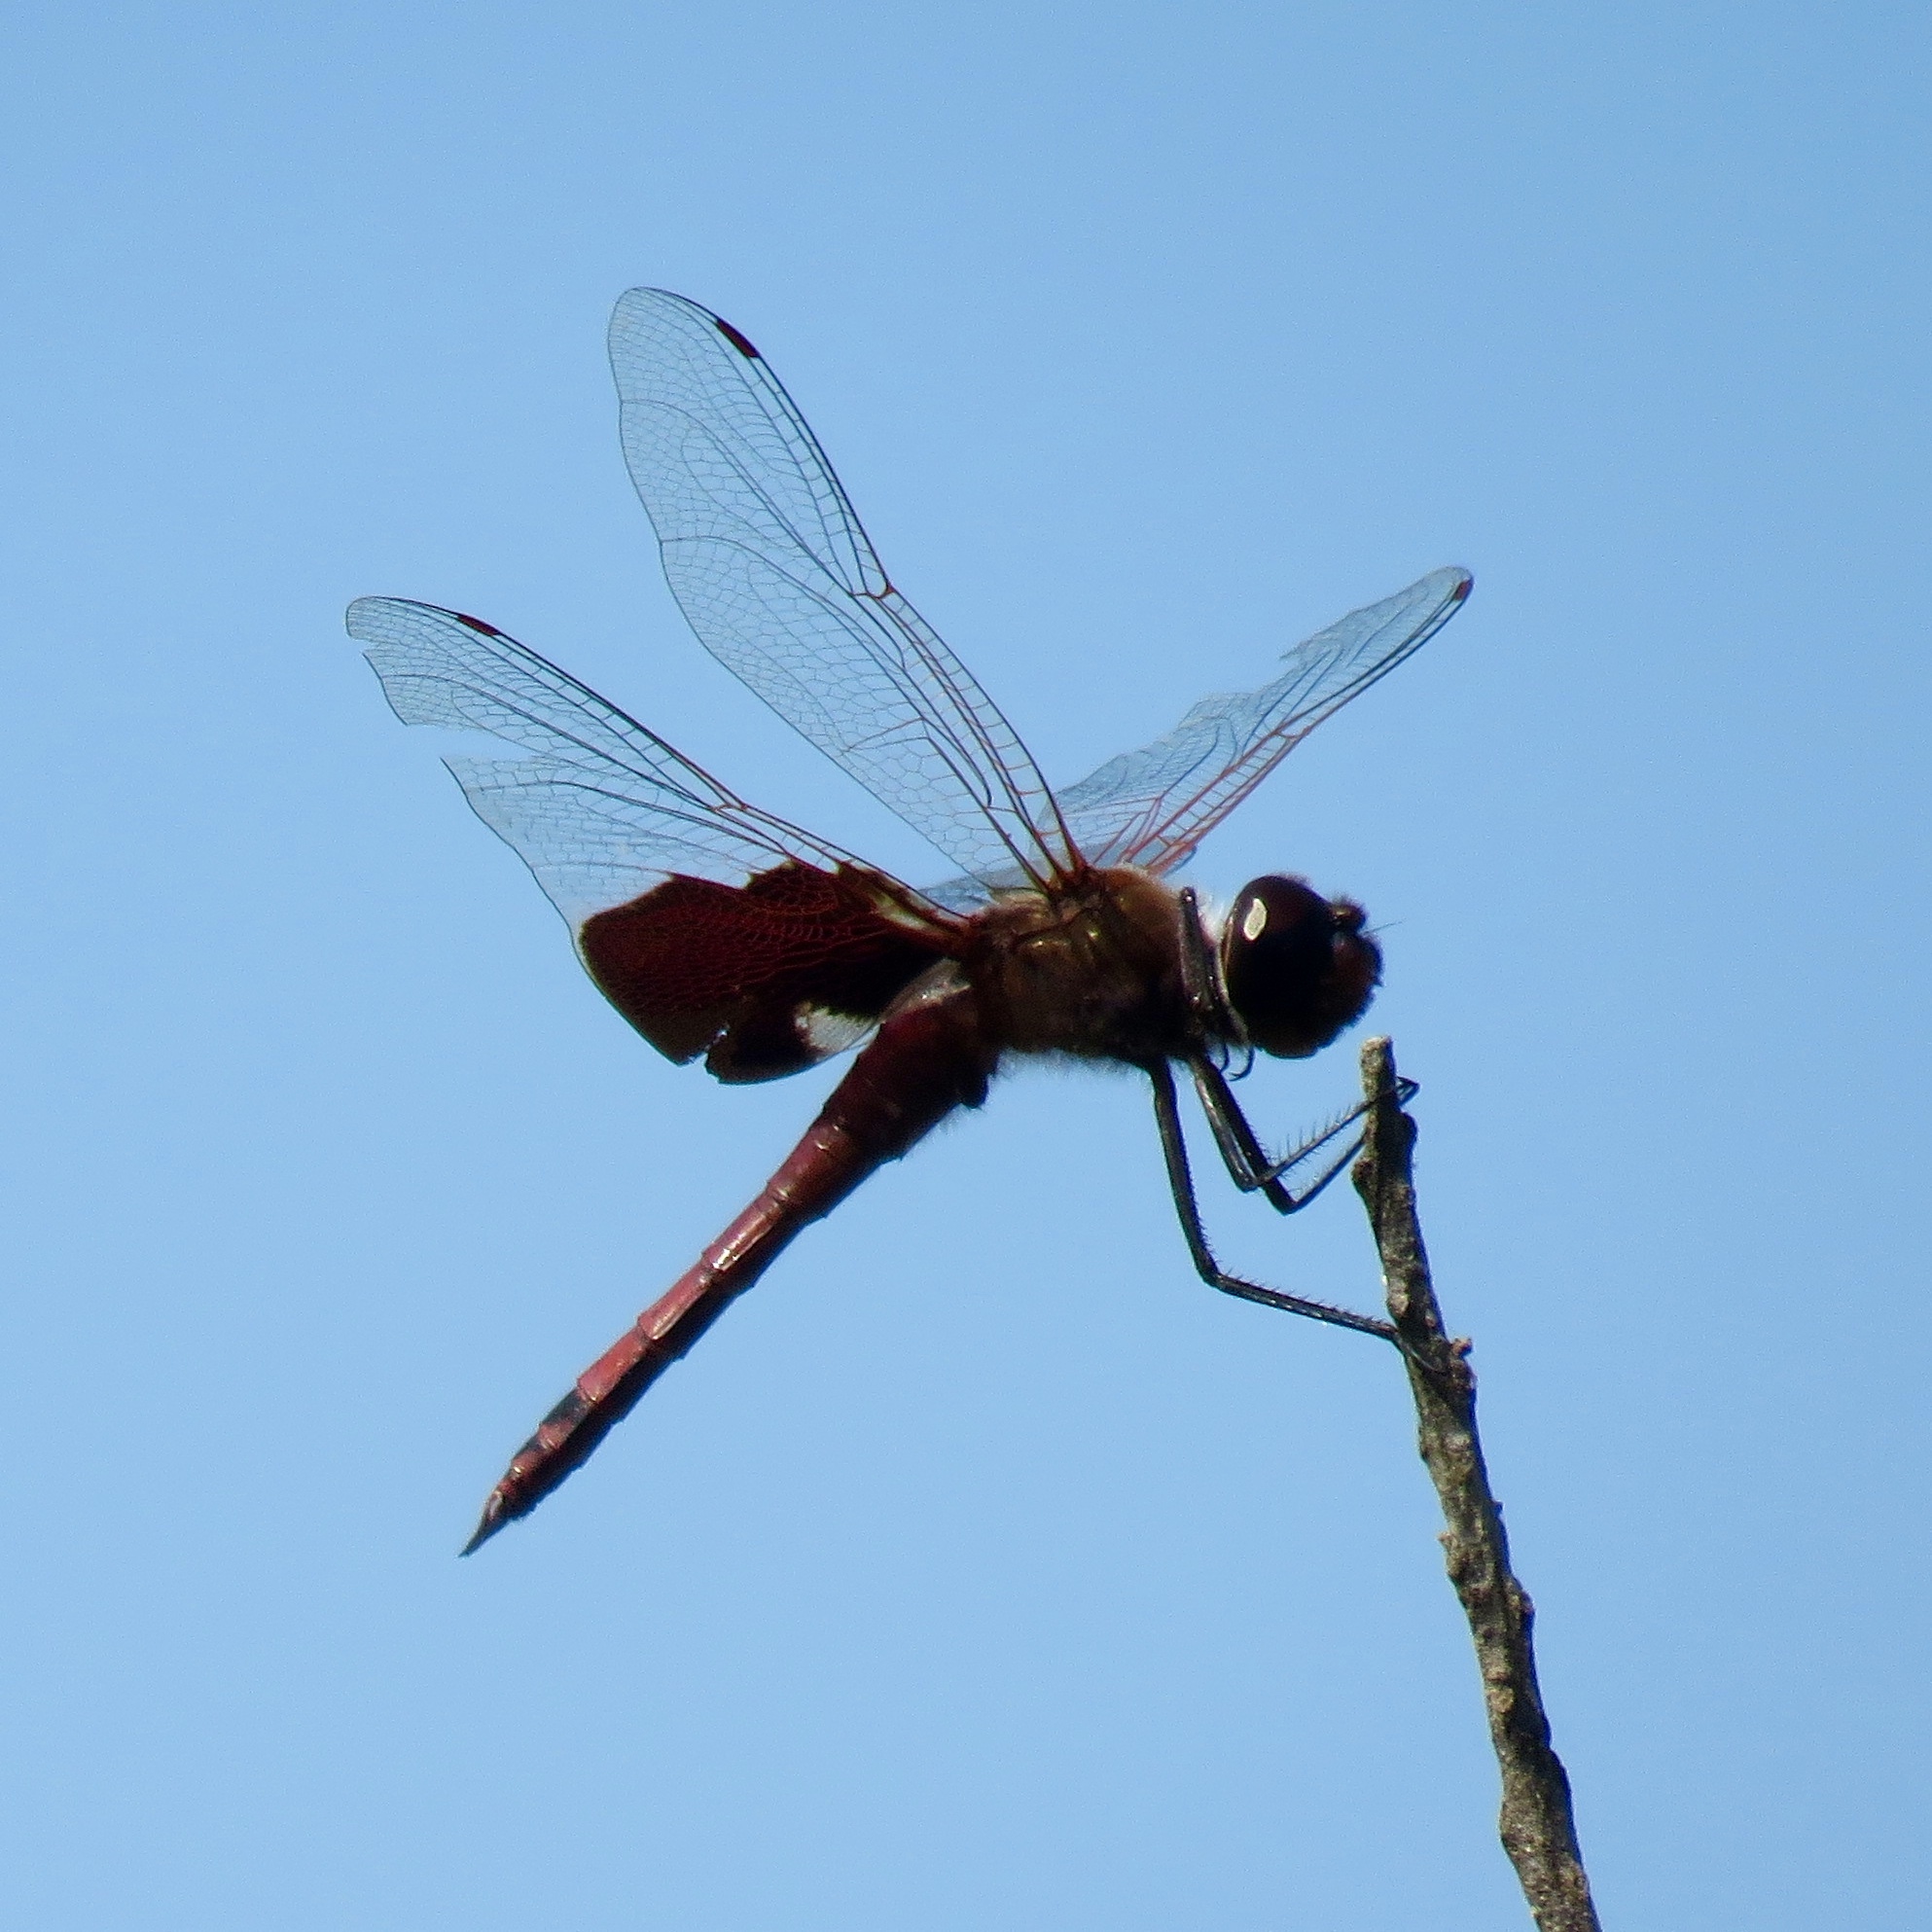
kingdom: Animalia
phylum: Arthropoda
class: Insecta
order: Odonata
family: Libellulidae
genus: Tramea
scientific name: Tramea carolina
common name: Carolina saddlebags
